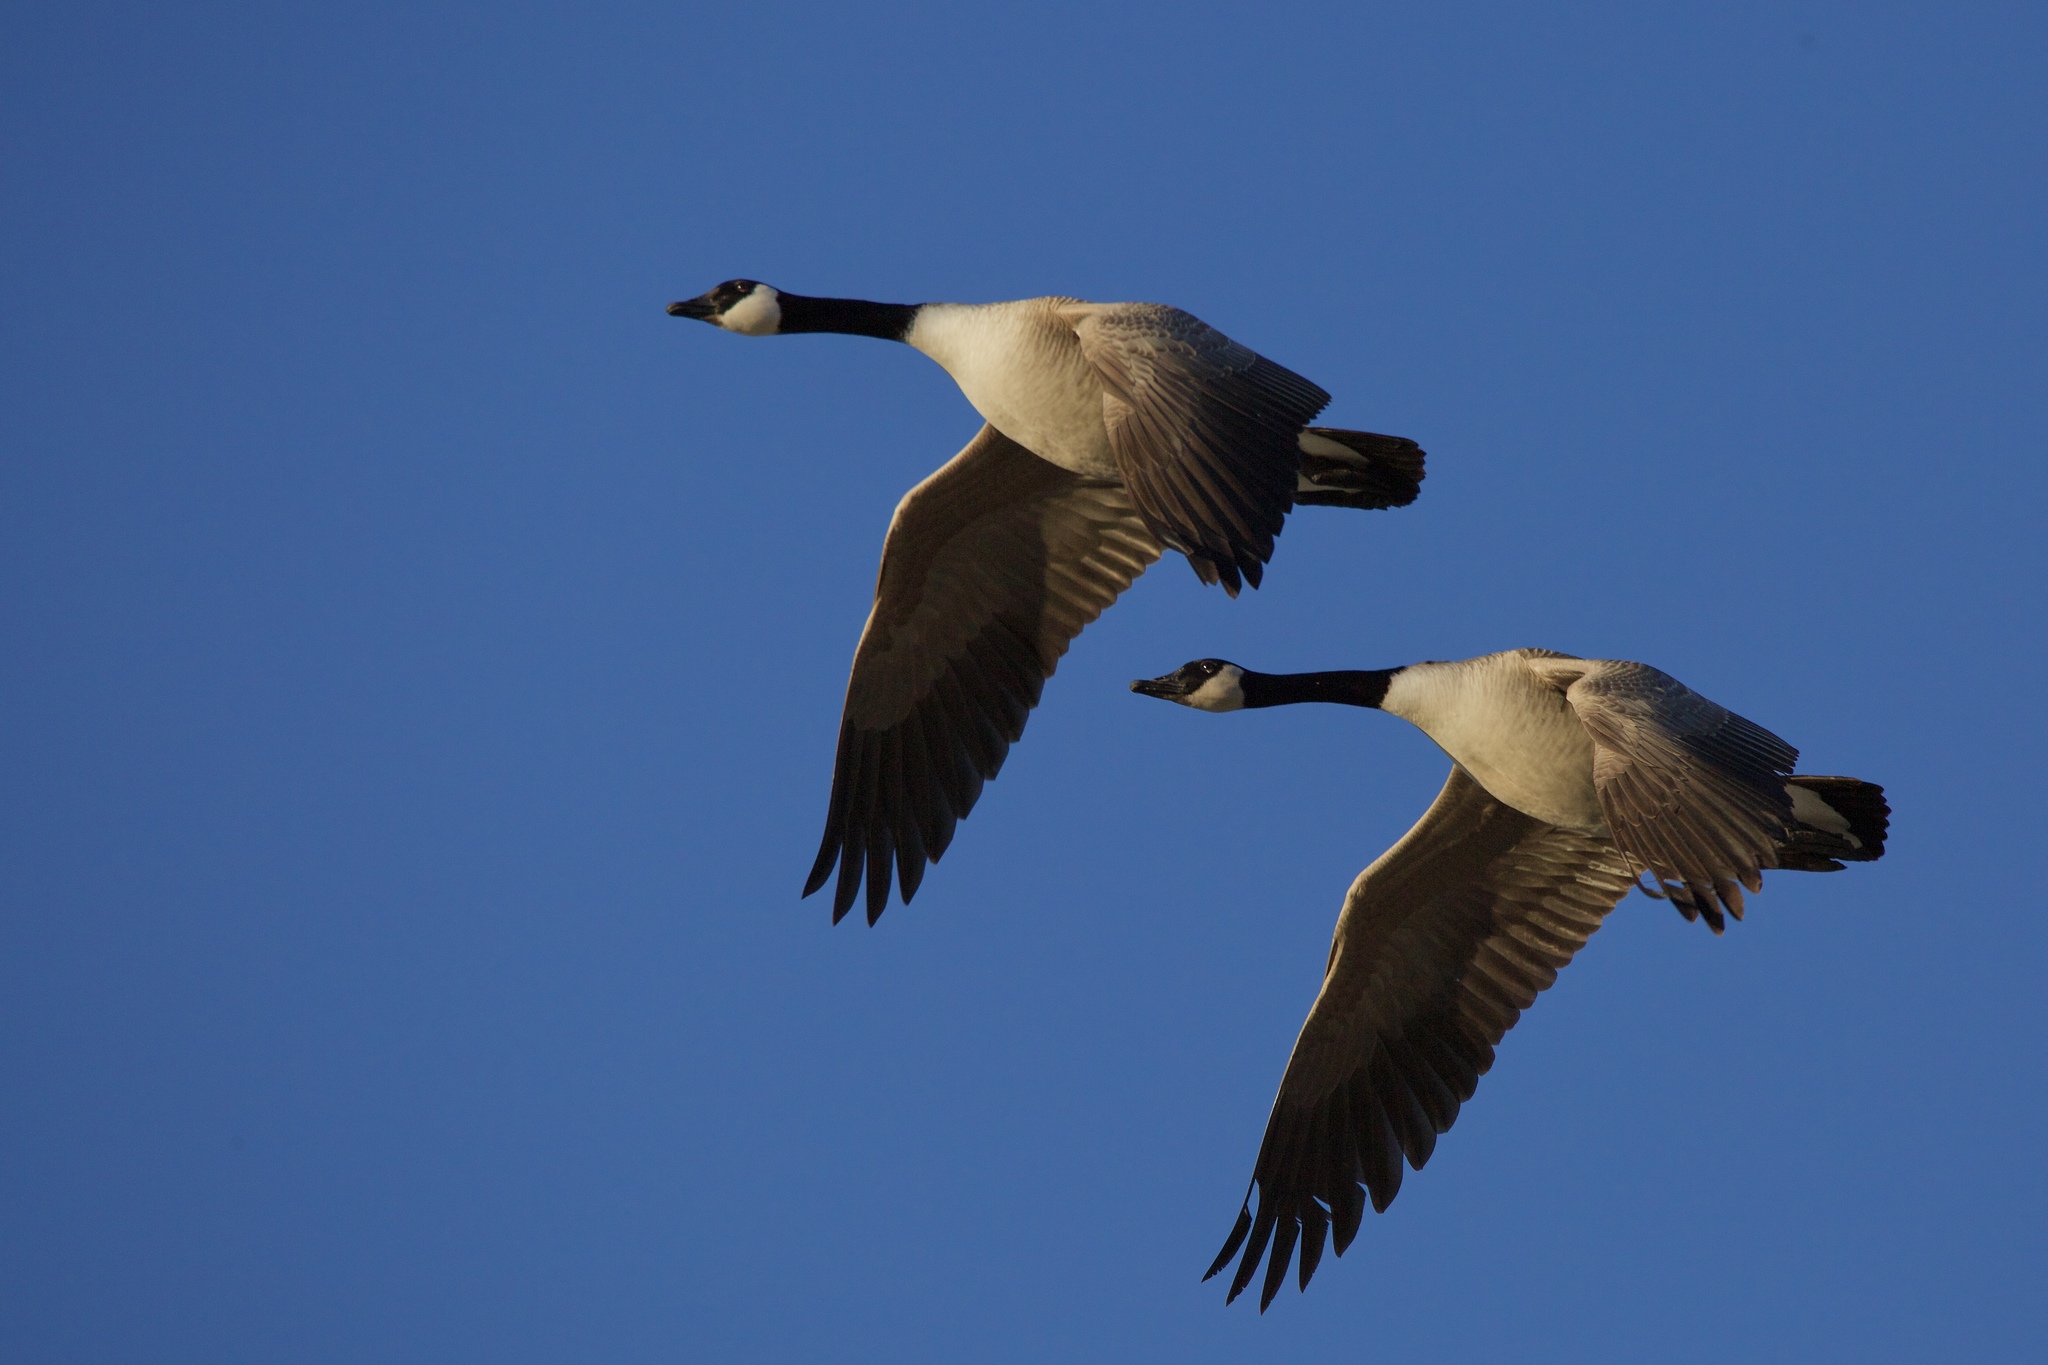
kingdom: Animalia
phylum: Chordata
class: Aves
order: Anseriformes
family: Anatidae
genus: Branta
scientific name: Branta canadensis
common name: Canada goose
